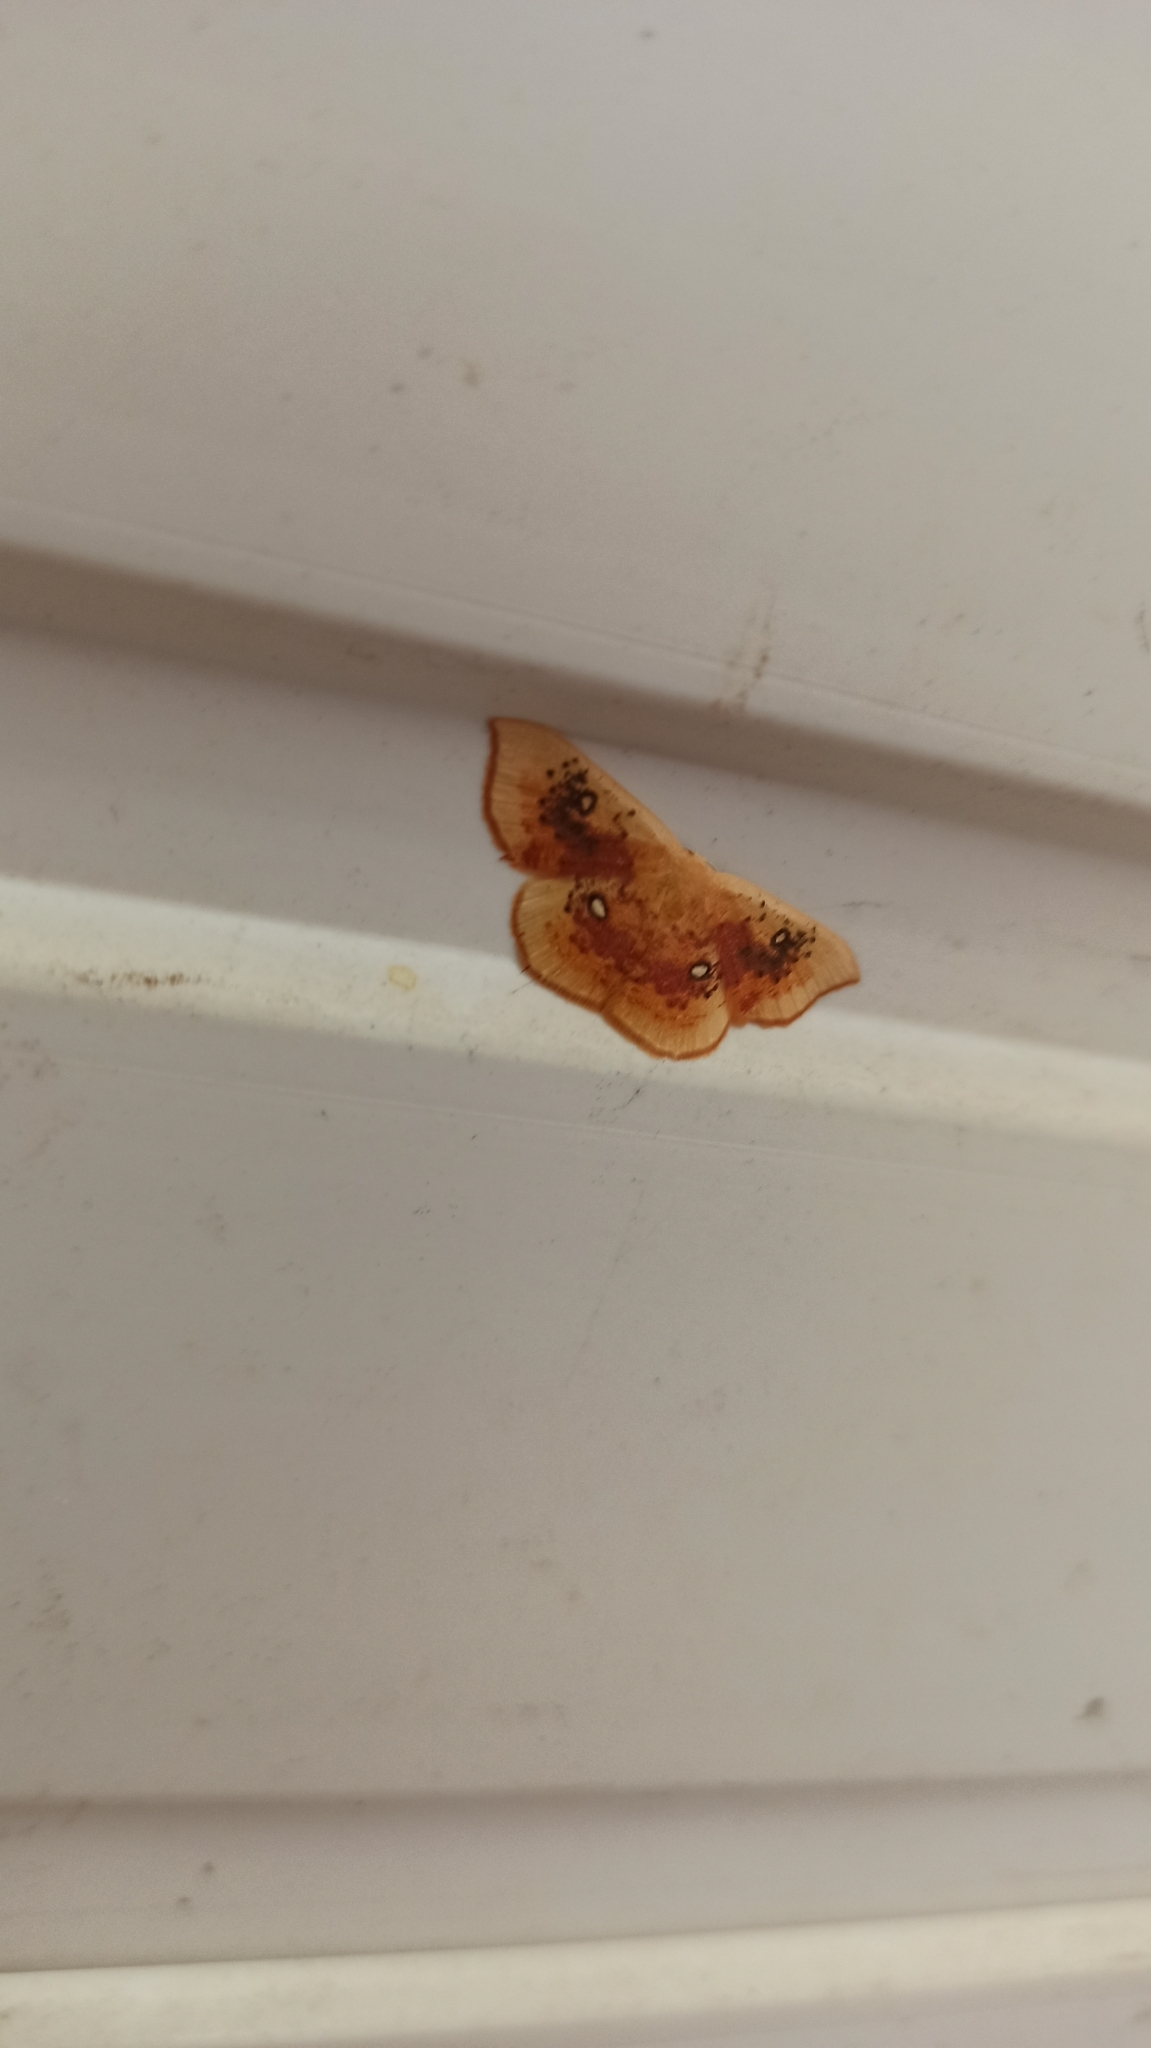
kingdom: Animalia
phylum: Arthropoda
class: Insecta
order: Lepidoptera
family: Geometridae
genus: Cyclophora
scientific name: Cyclophora albiocellaria
